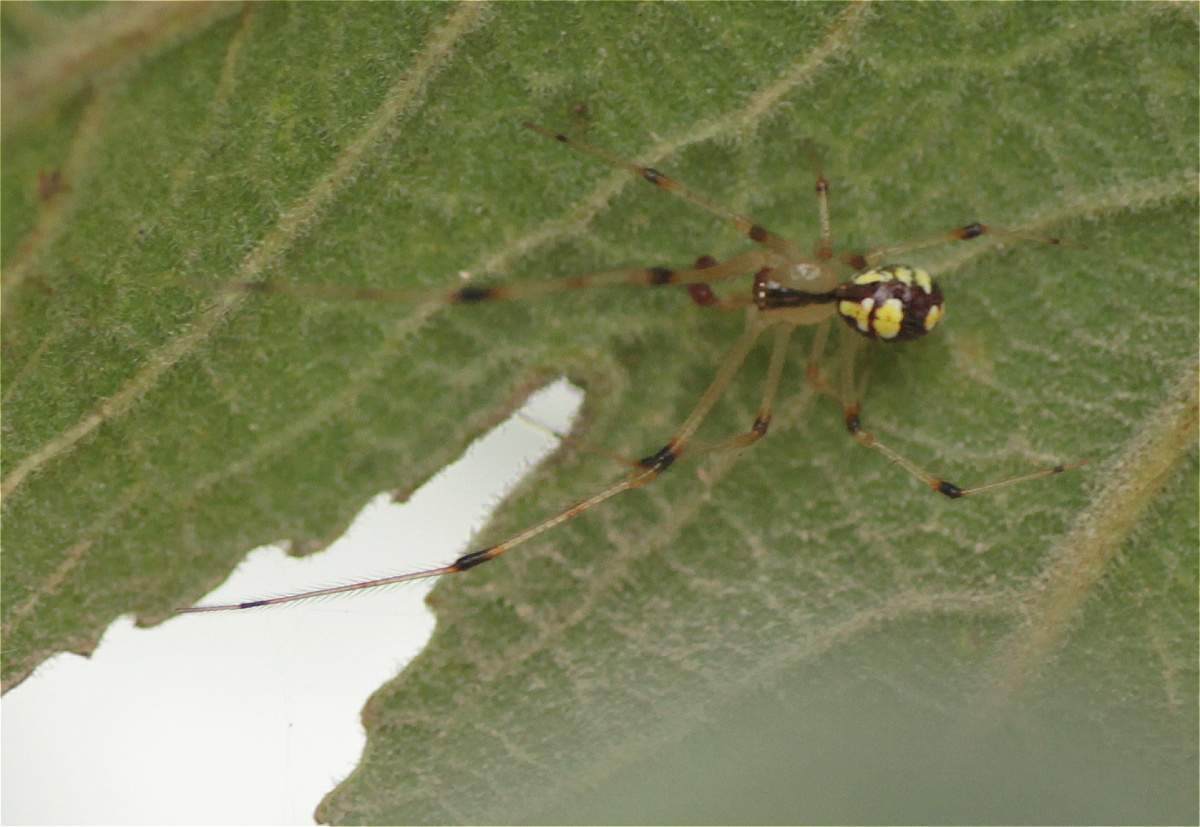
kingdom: Animalia
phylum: Arthropoda
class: Arachnida
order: Araneae
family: Theridiidae
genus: Theridion
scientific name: Theridion frizzellorum
